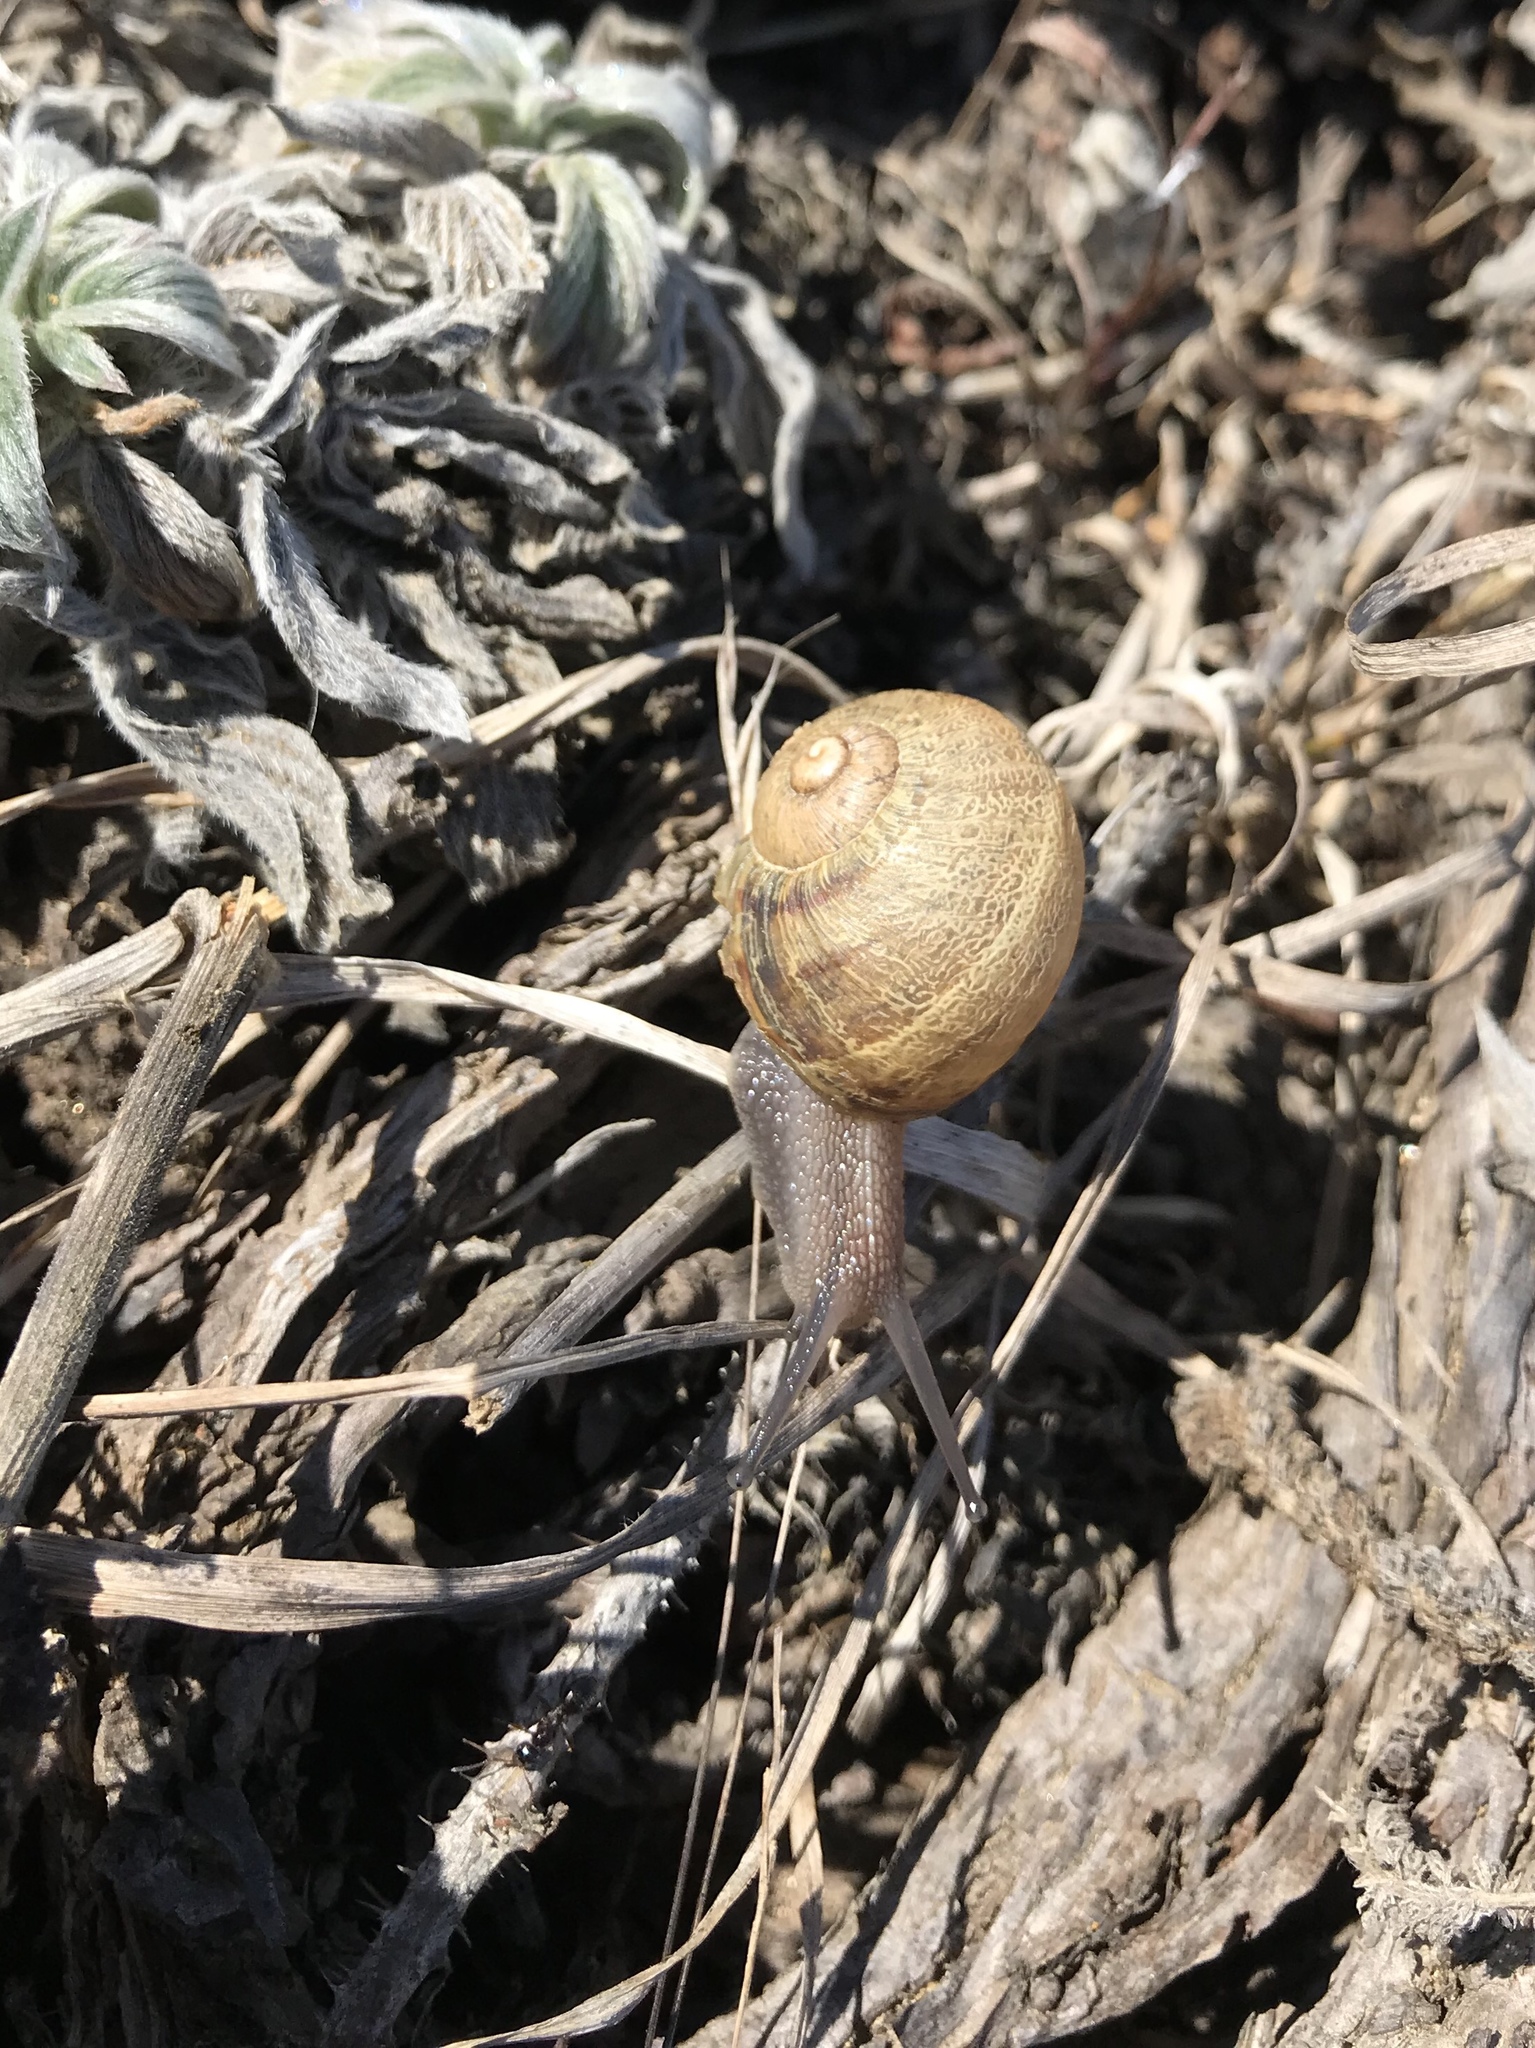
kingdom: Animalia
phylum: Mollusca
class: Gastropoda
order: Stylommatophora
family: Helicidae
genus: Cornu
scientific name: Cornu aspersum
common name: Brown garden snail
